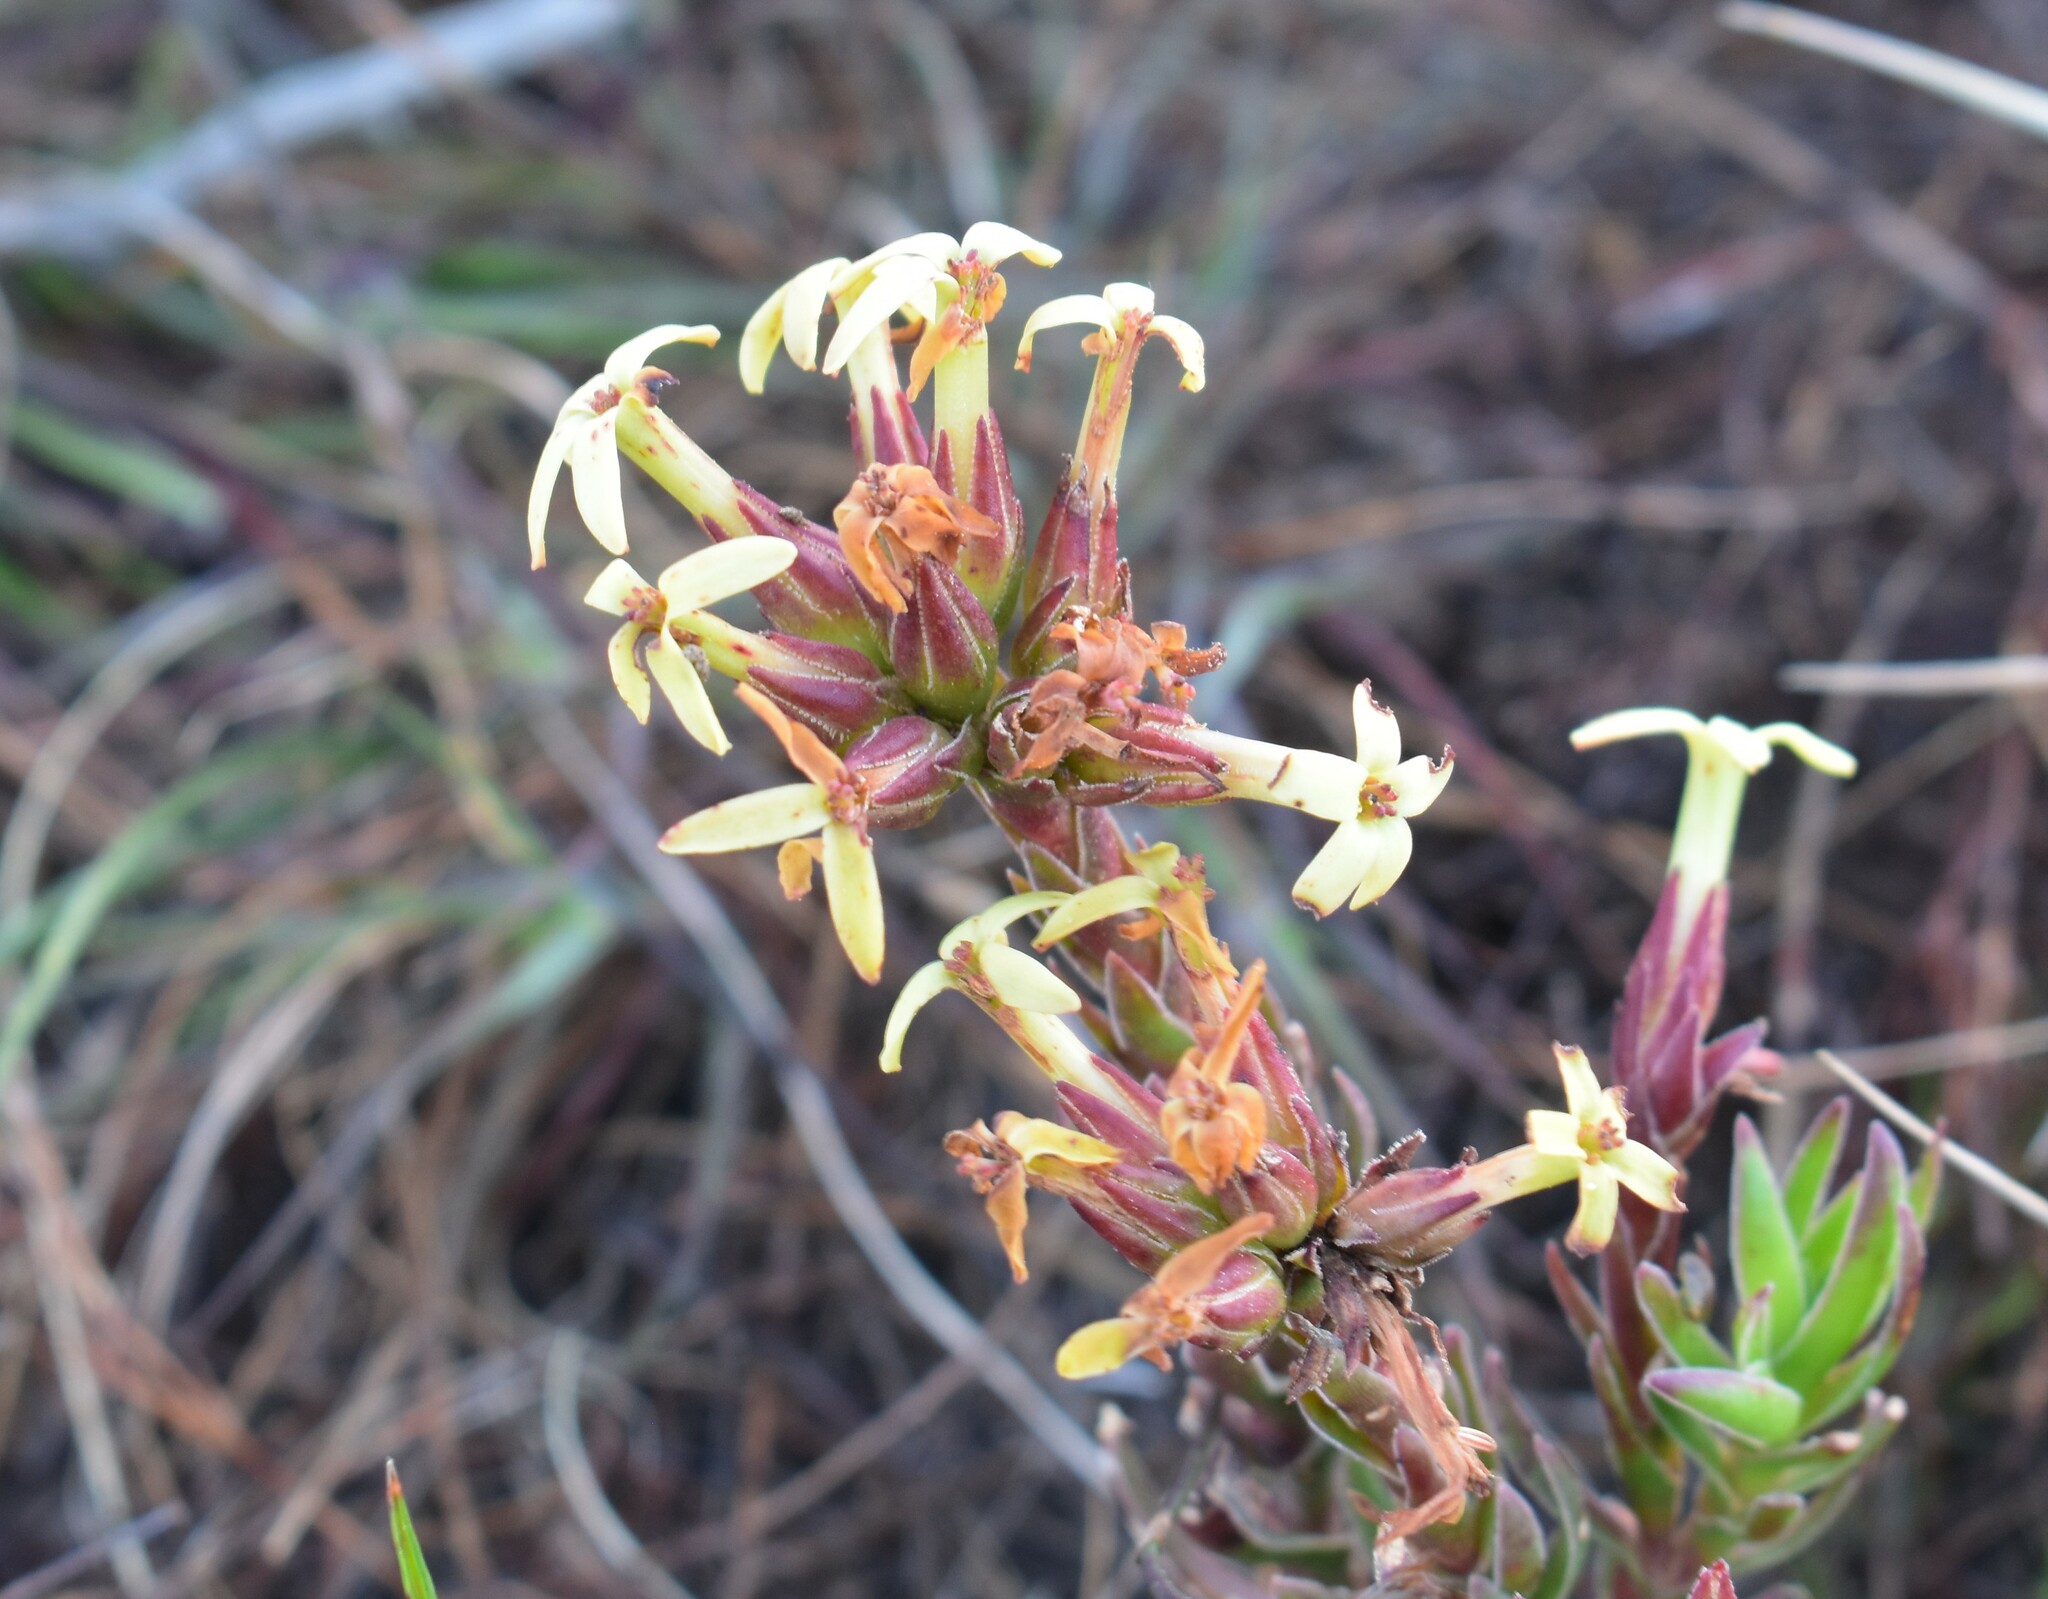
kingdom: Plantae
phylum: Tracheophyta
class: Magnoliopsida
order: Saxifragales
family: Crassulaceae
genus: Crassula
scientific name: Crassula fascicularis
